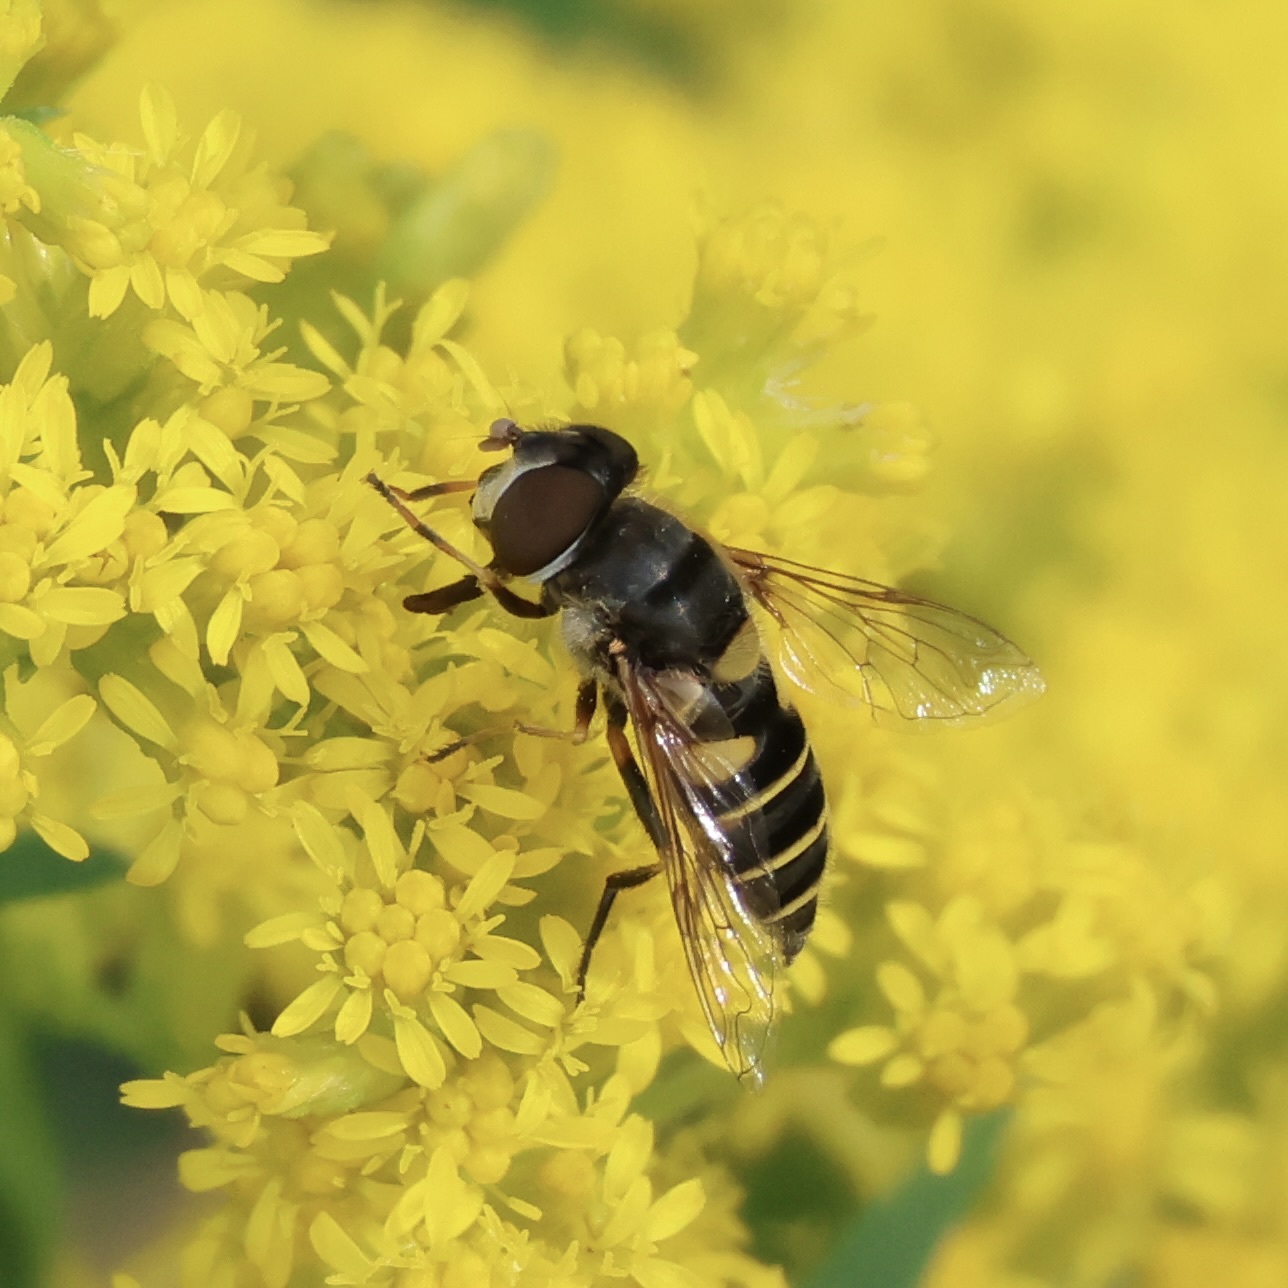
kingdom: Animalia
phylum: Arthropoda
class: Insecta
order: Diptera
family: Syrphidae
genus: Eristalis
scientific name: Eristalis transversa
